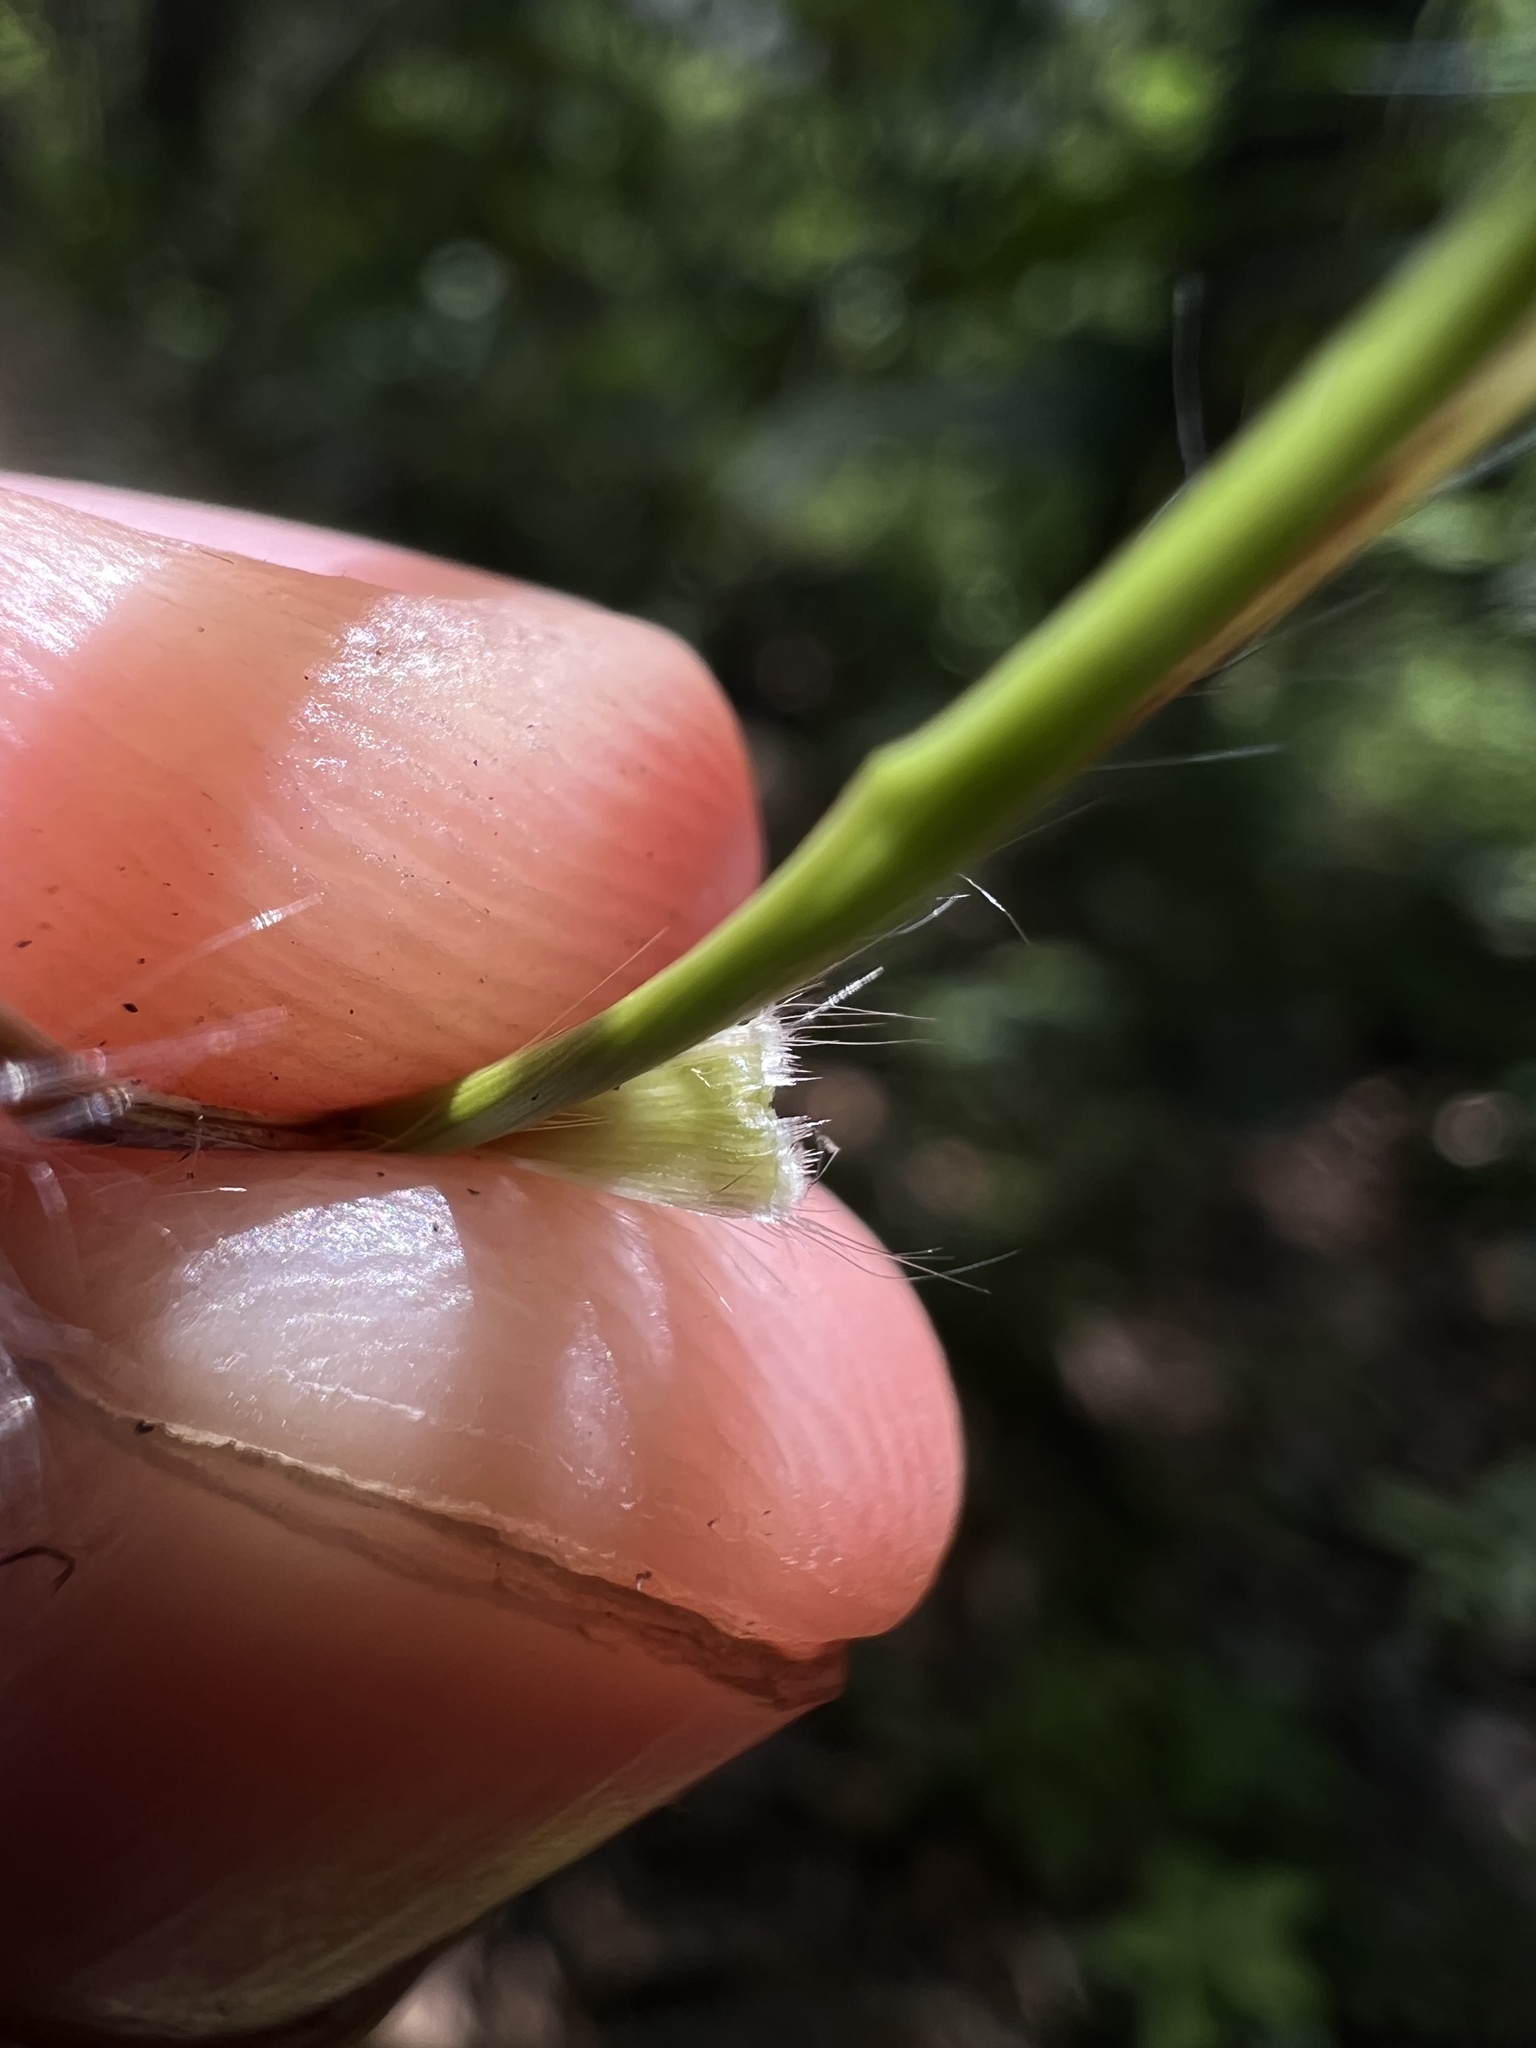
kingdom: Plantae
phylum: Tracheophyta
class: Liliopsida
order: Poales
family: Poaceae
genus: Dichanthelium
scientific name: Dichanthelium linearifolium
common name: Linear-leaved panicgrass
